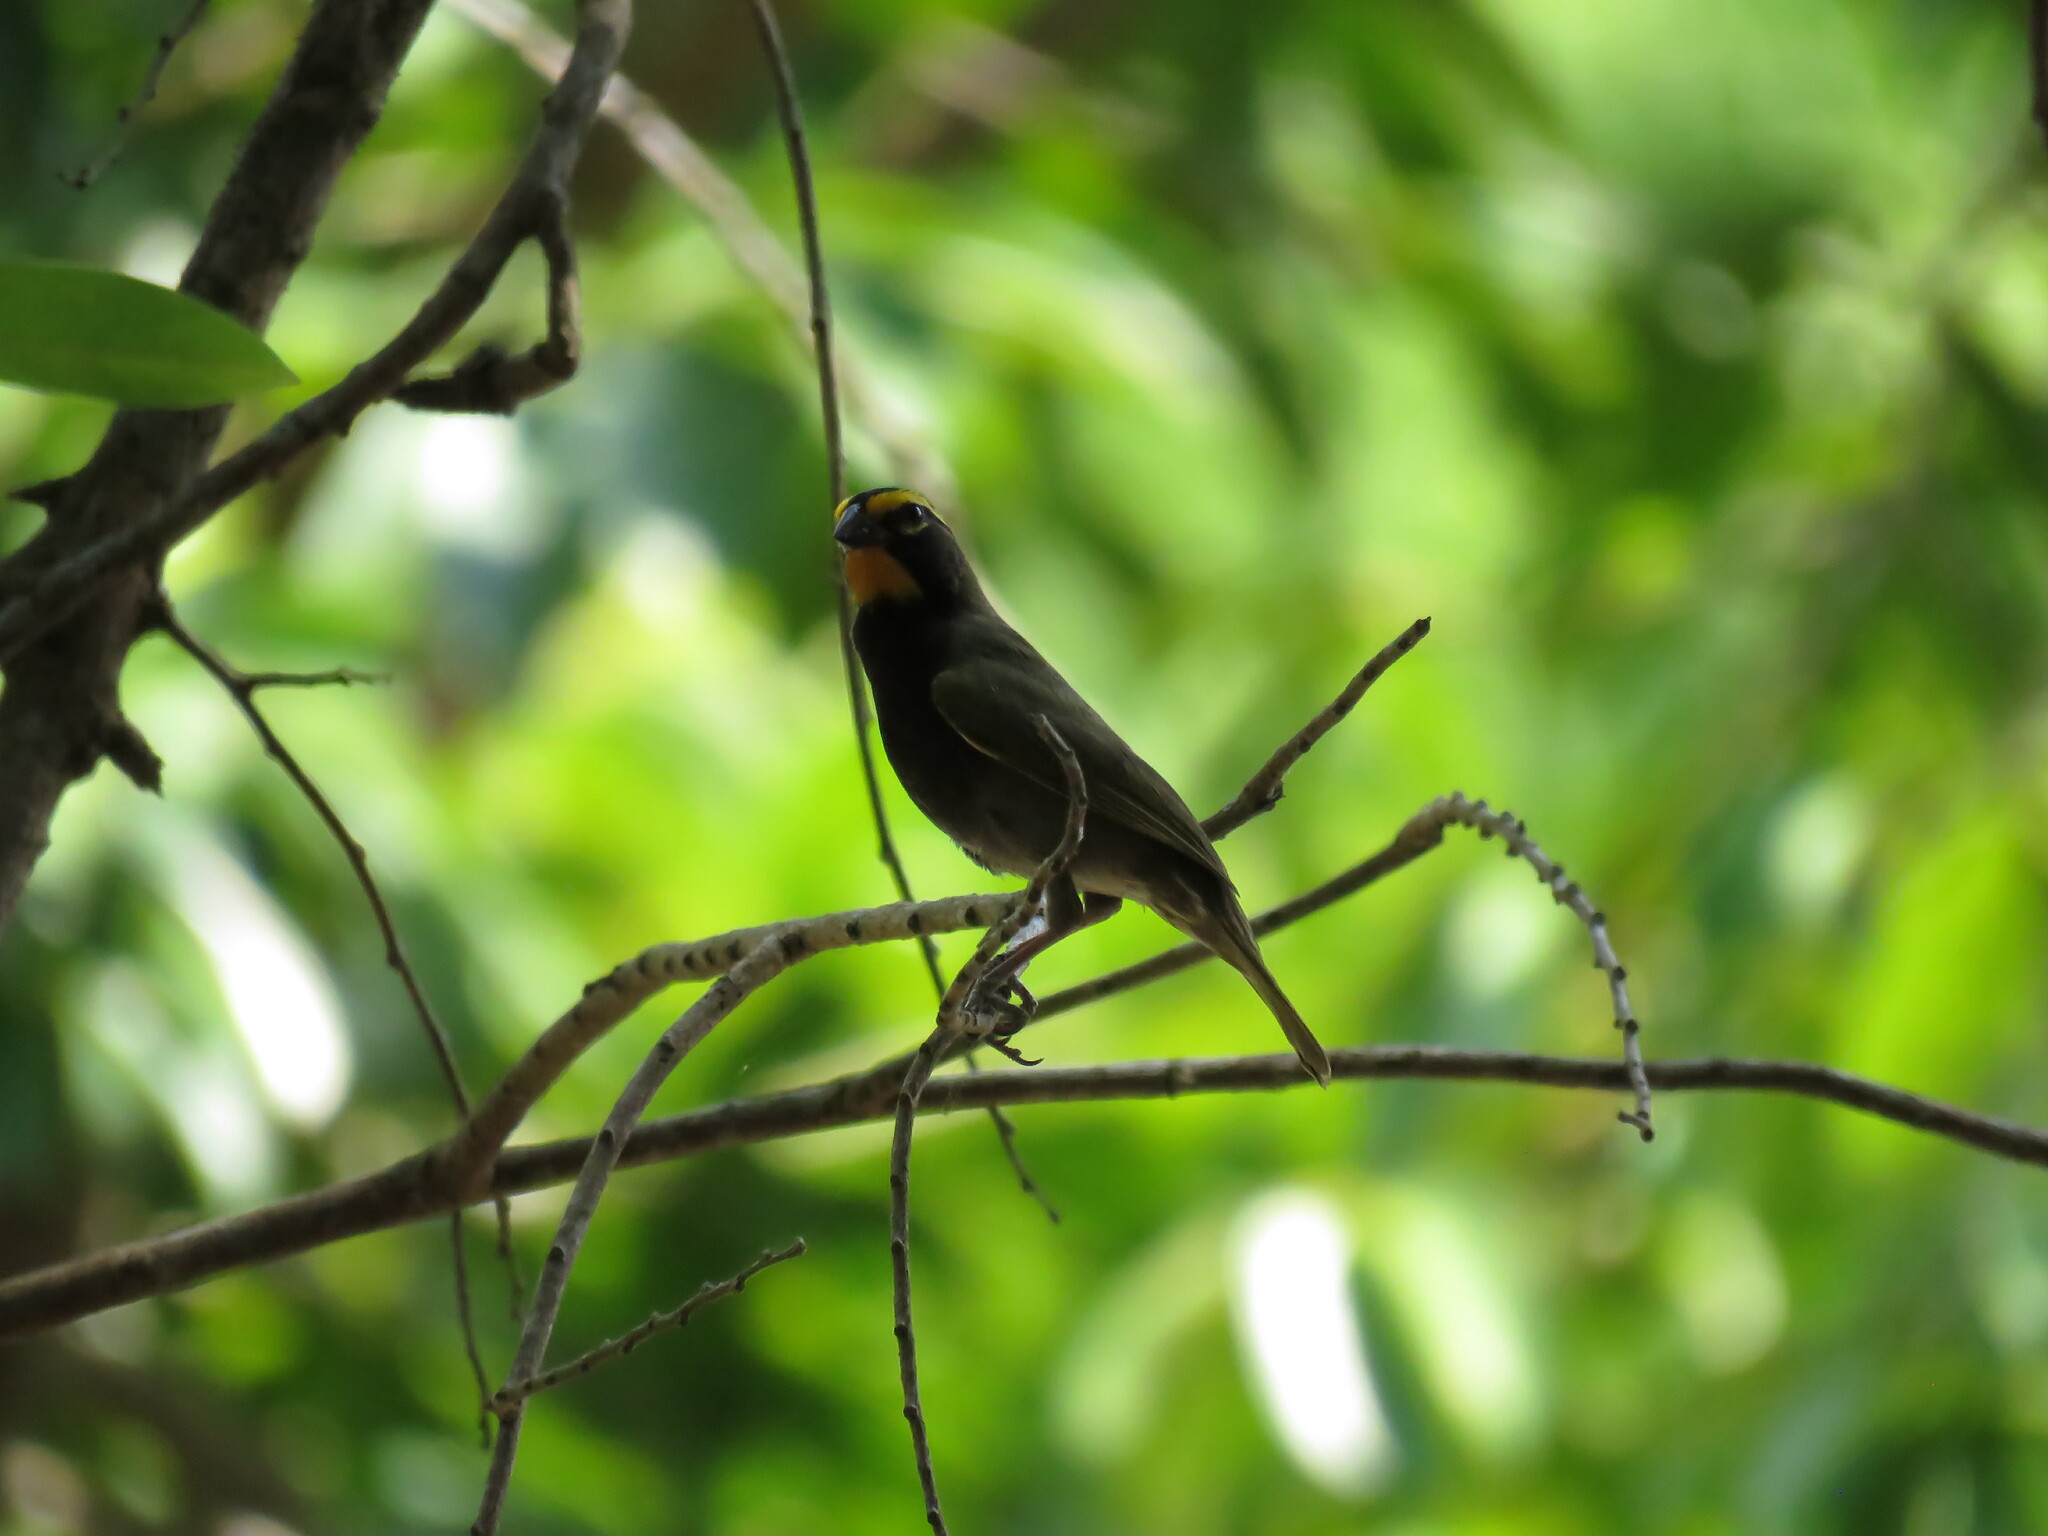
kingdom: Animalia
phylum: Chordata
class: Aves
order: Passeriformes
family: Thraupidae
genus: Tiaris
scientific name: Tiaris olivaceus
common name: Yellow-faced grassquit
